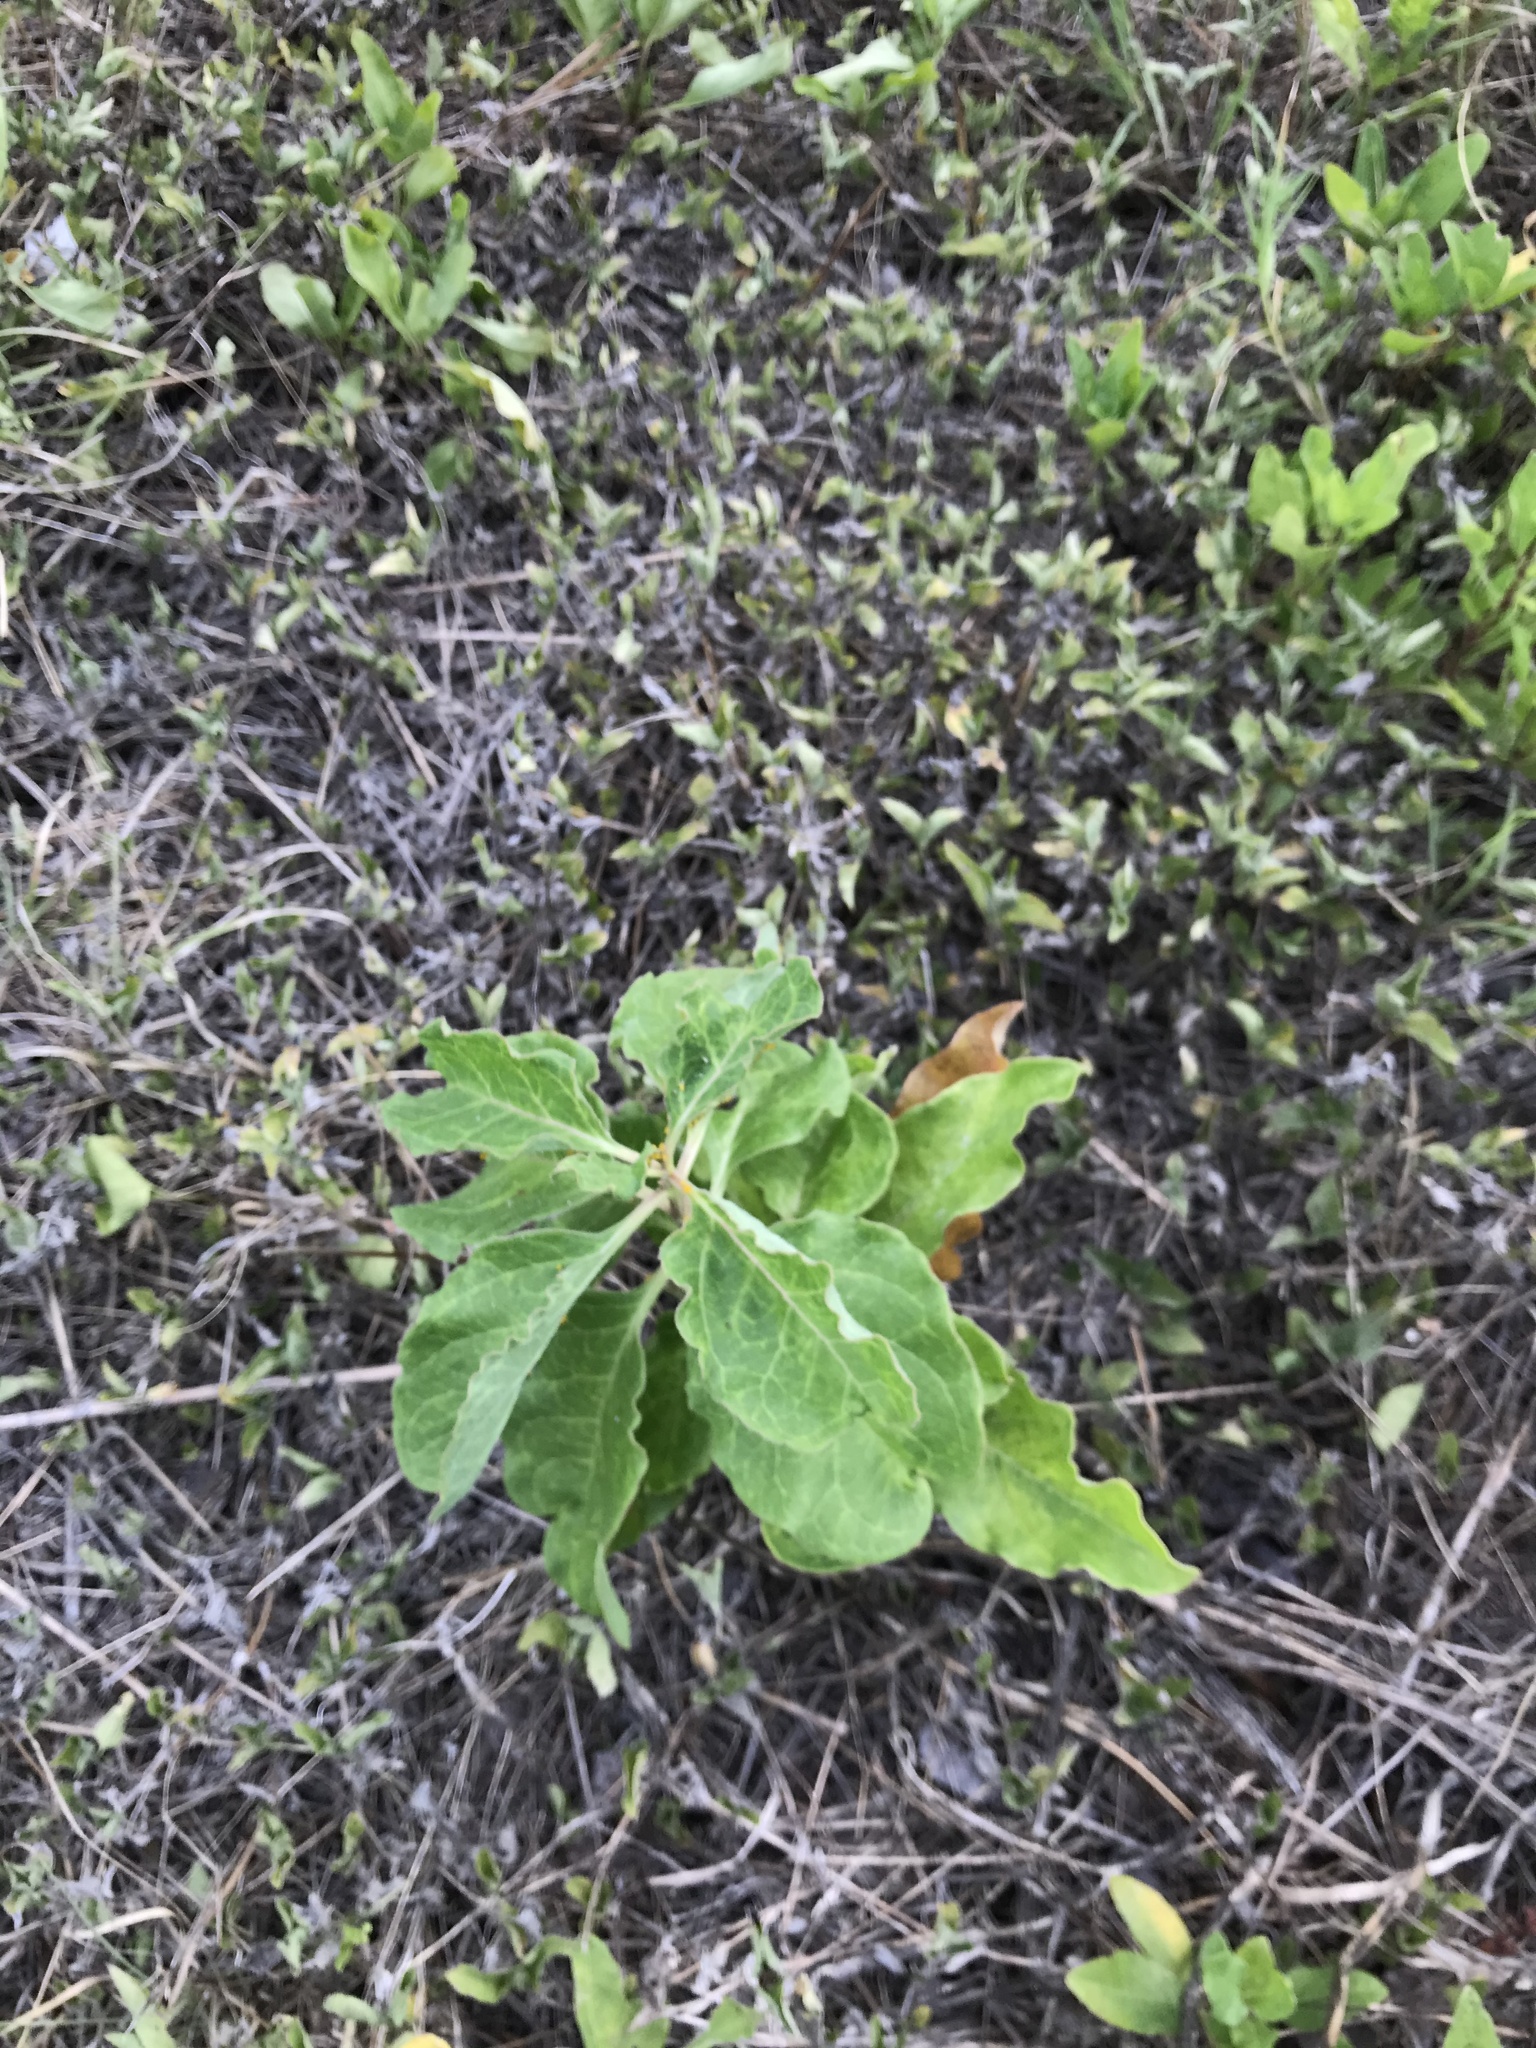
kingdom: Plantae
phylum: Tracheophyta
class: Magnoliopsida
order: Gentianales
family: Apocynaceae
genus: Asclepias
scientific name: Asclepias oenotheroides
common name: Zizotes milkweed
